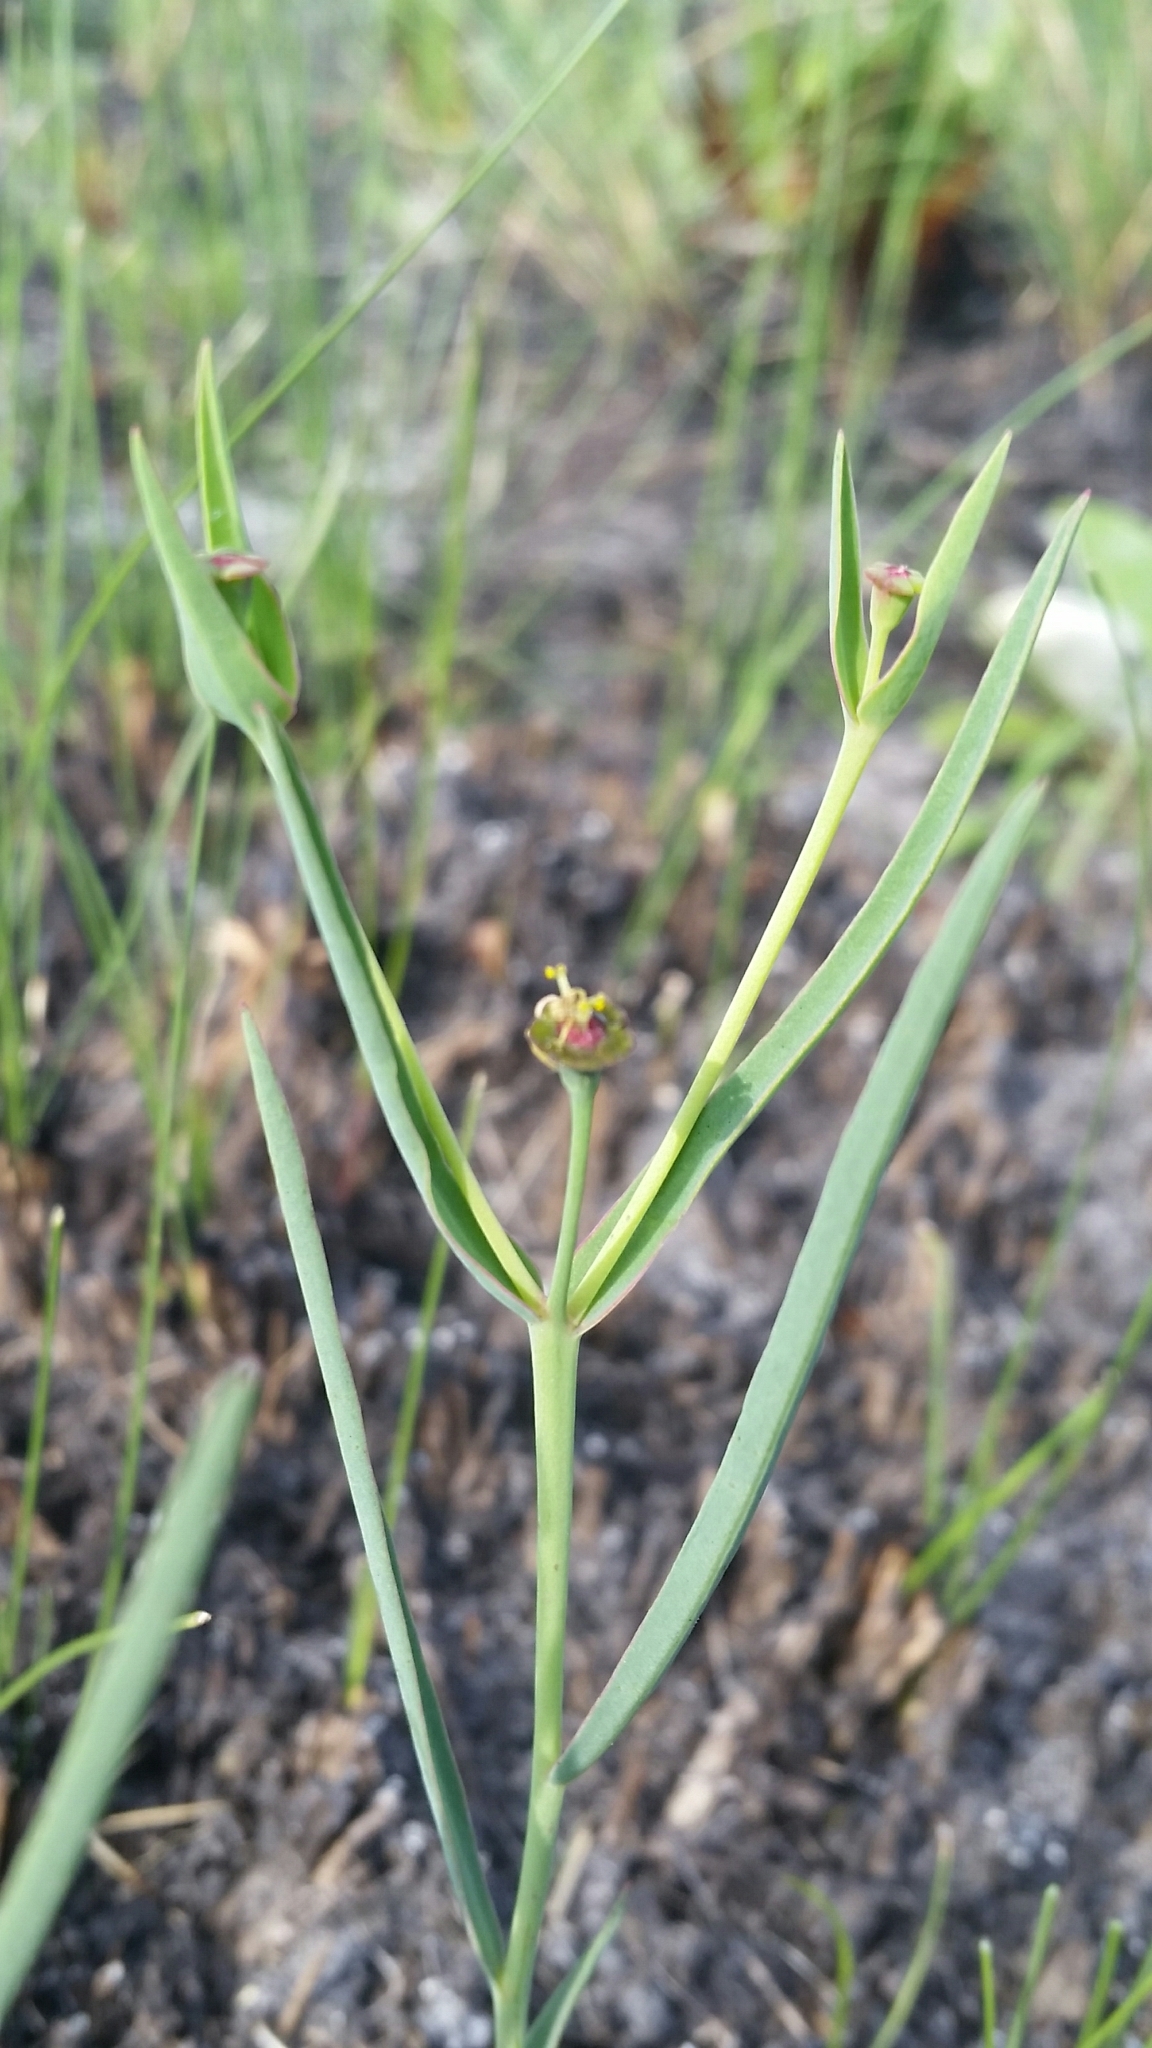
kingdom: Plantae
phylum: Tracheophyta
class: Magnoliopsida
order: Malpighiales
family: Euphorbiaceae
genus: Euphorbia
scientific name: Euphorbia inundata
